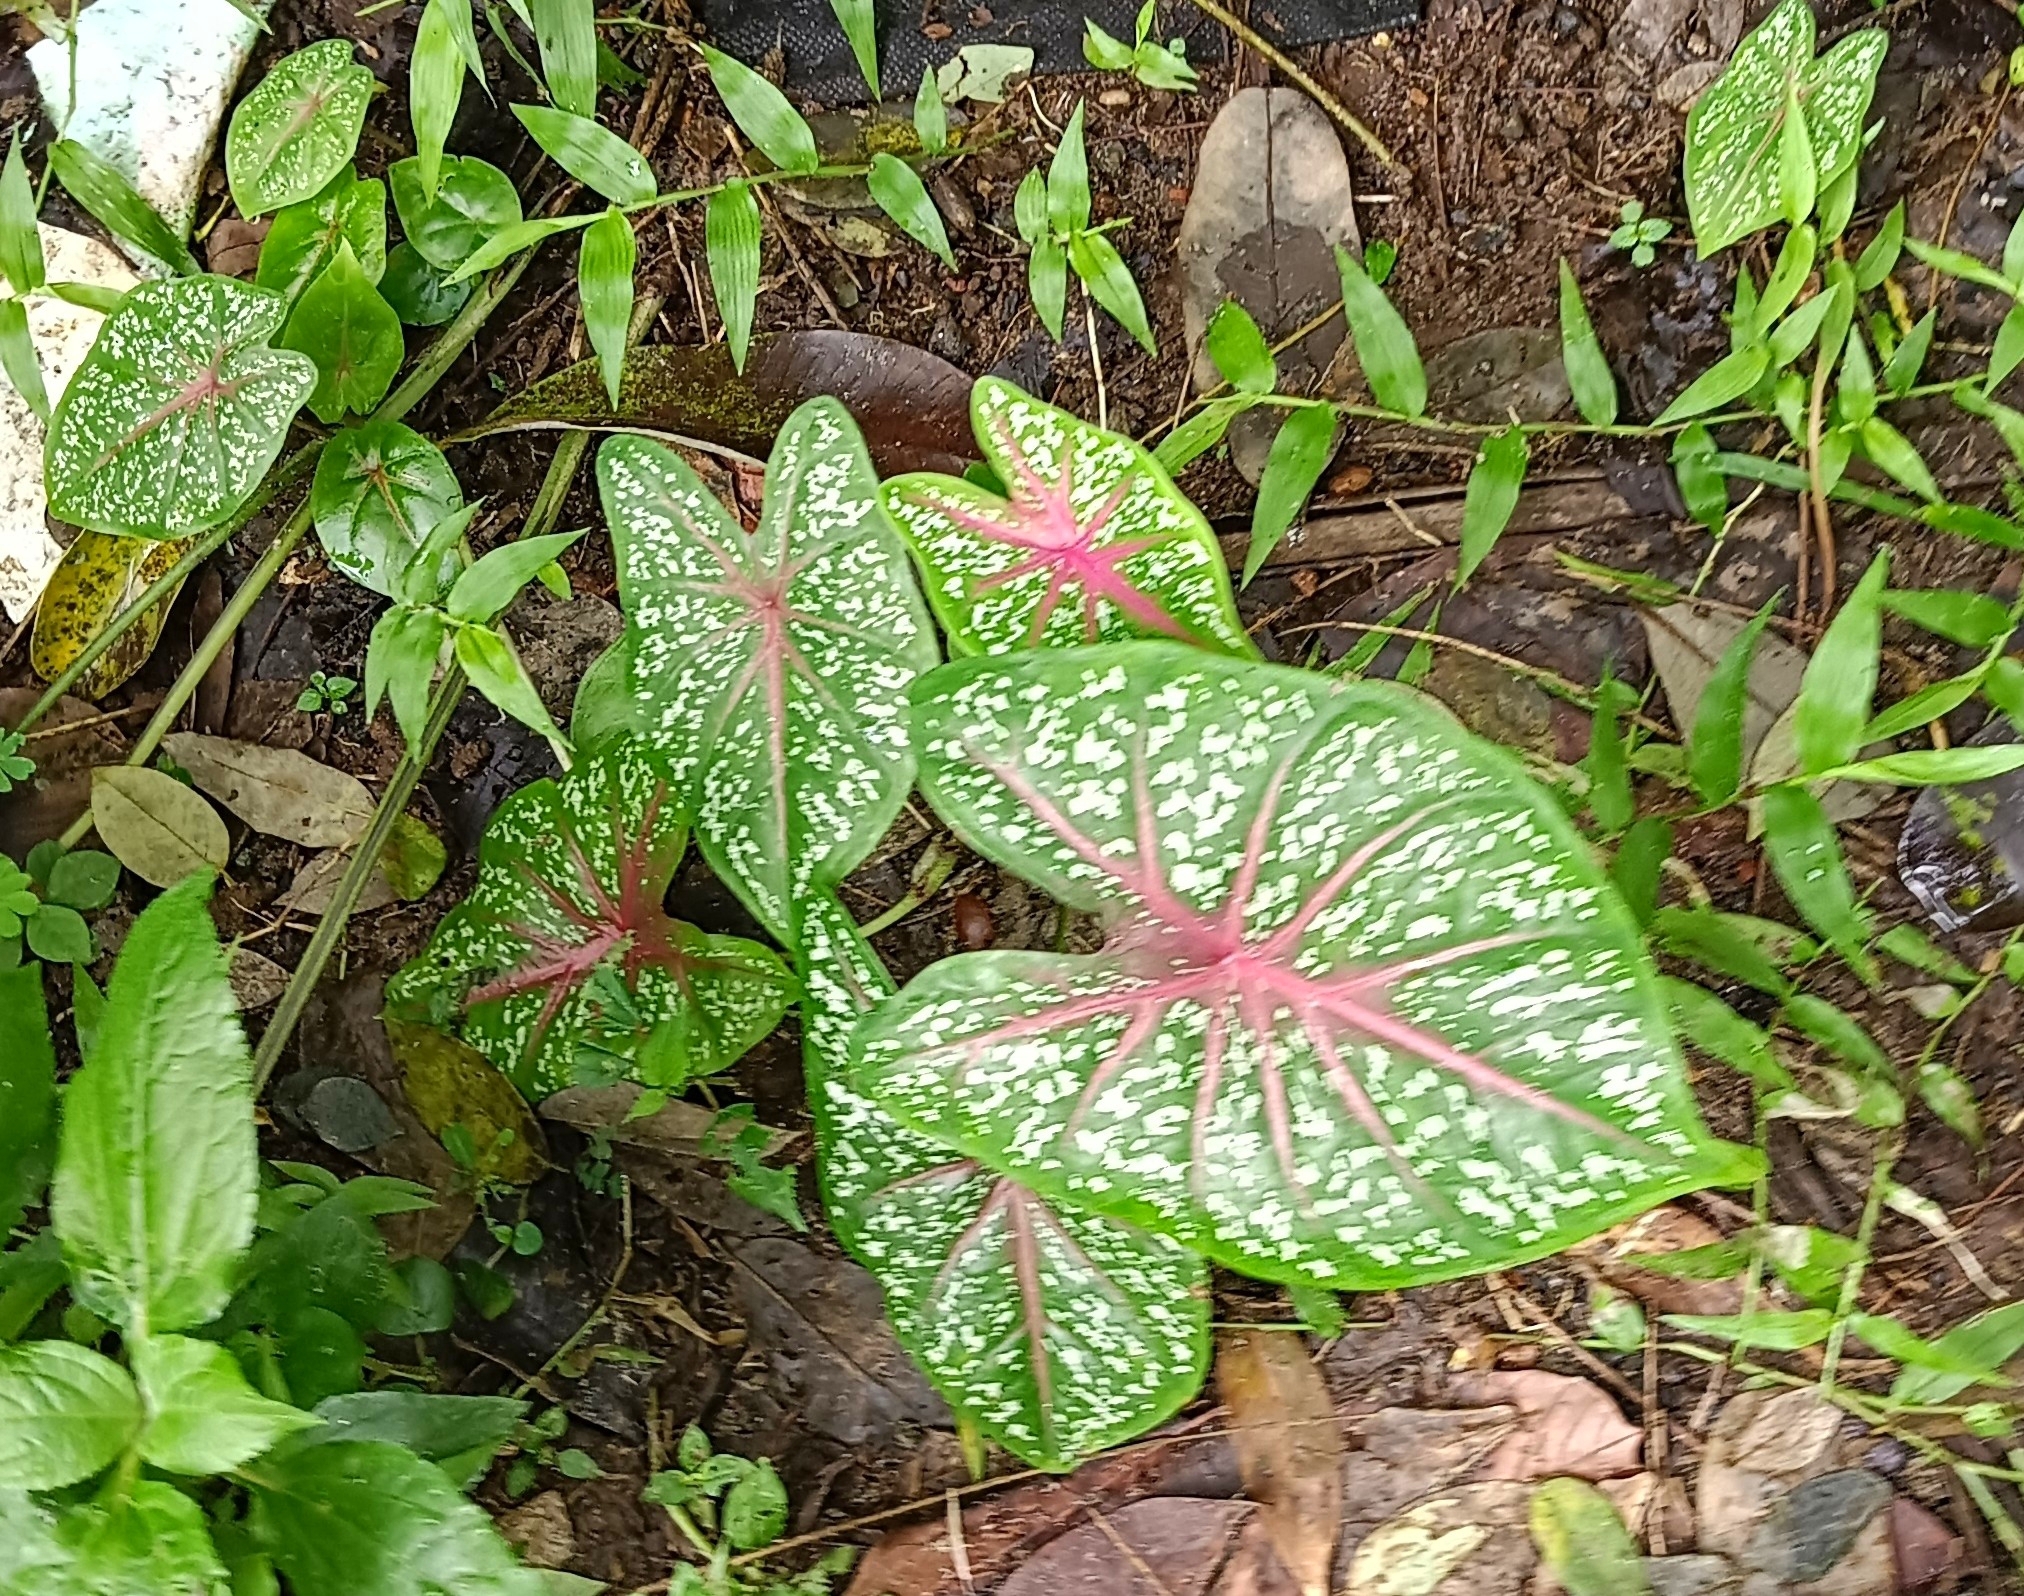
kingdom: Plantae
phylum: Tracheophyta
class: Liliopsida
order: Alismatales
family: Araceae
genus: Caladium
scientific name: Caladium bicolor
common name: Artist's pallet
